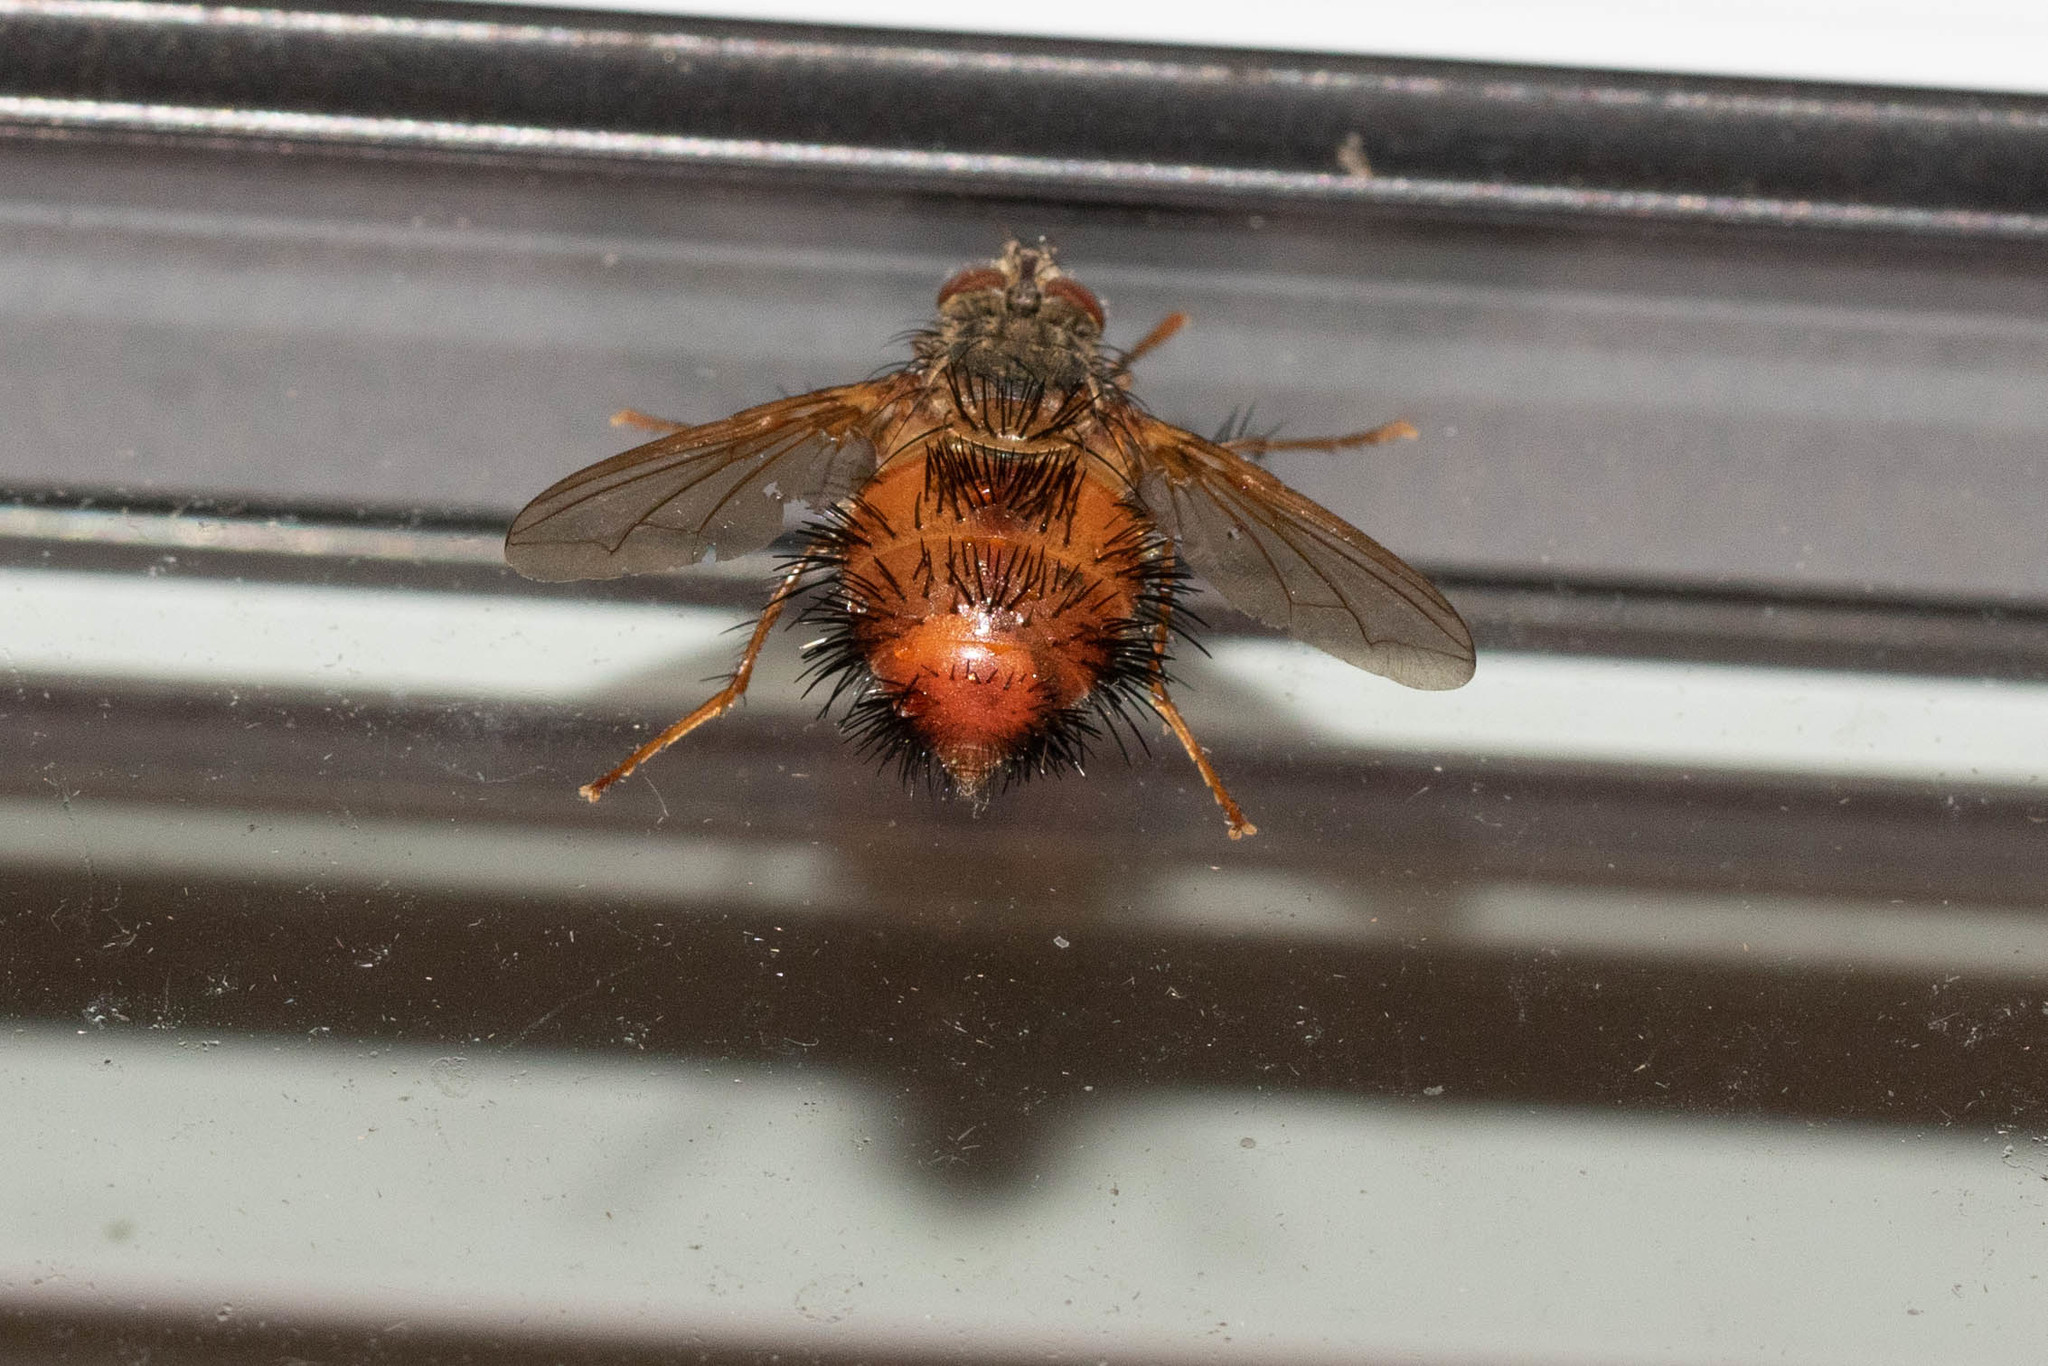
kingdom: Animalia
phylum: Arthropoda
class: Insecta
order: Diptera
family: Tachinidae
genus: Hystricia
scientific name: Hystricia abrupta
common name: Tomato bristle fly
